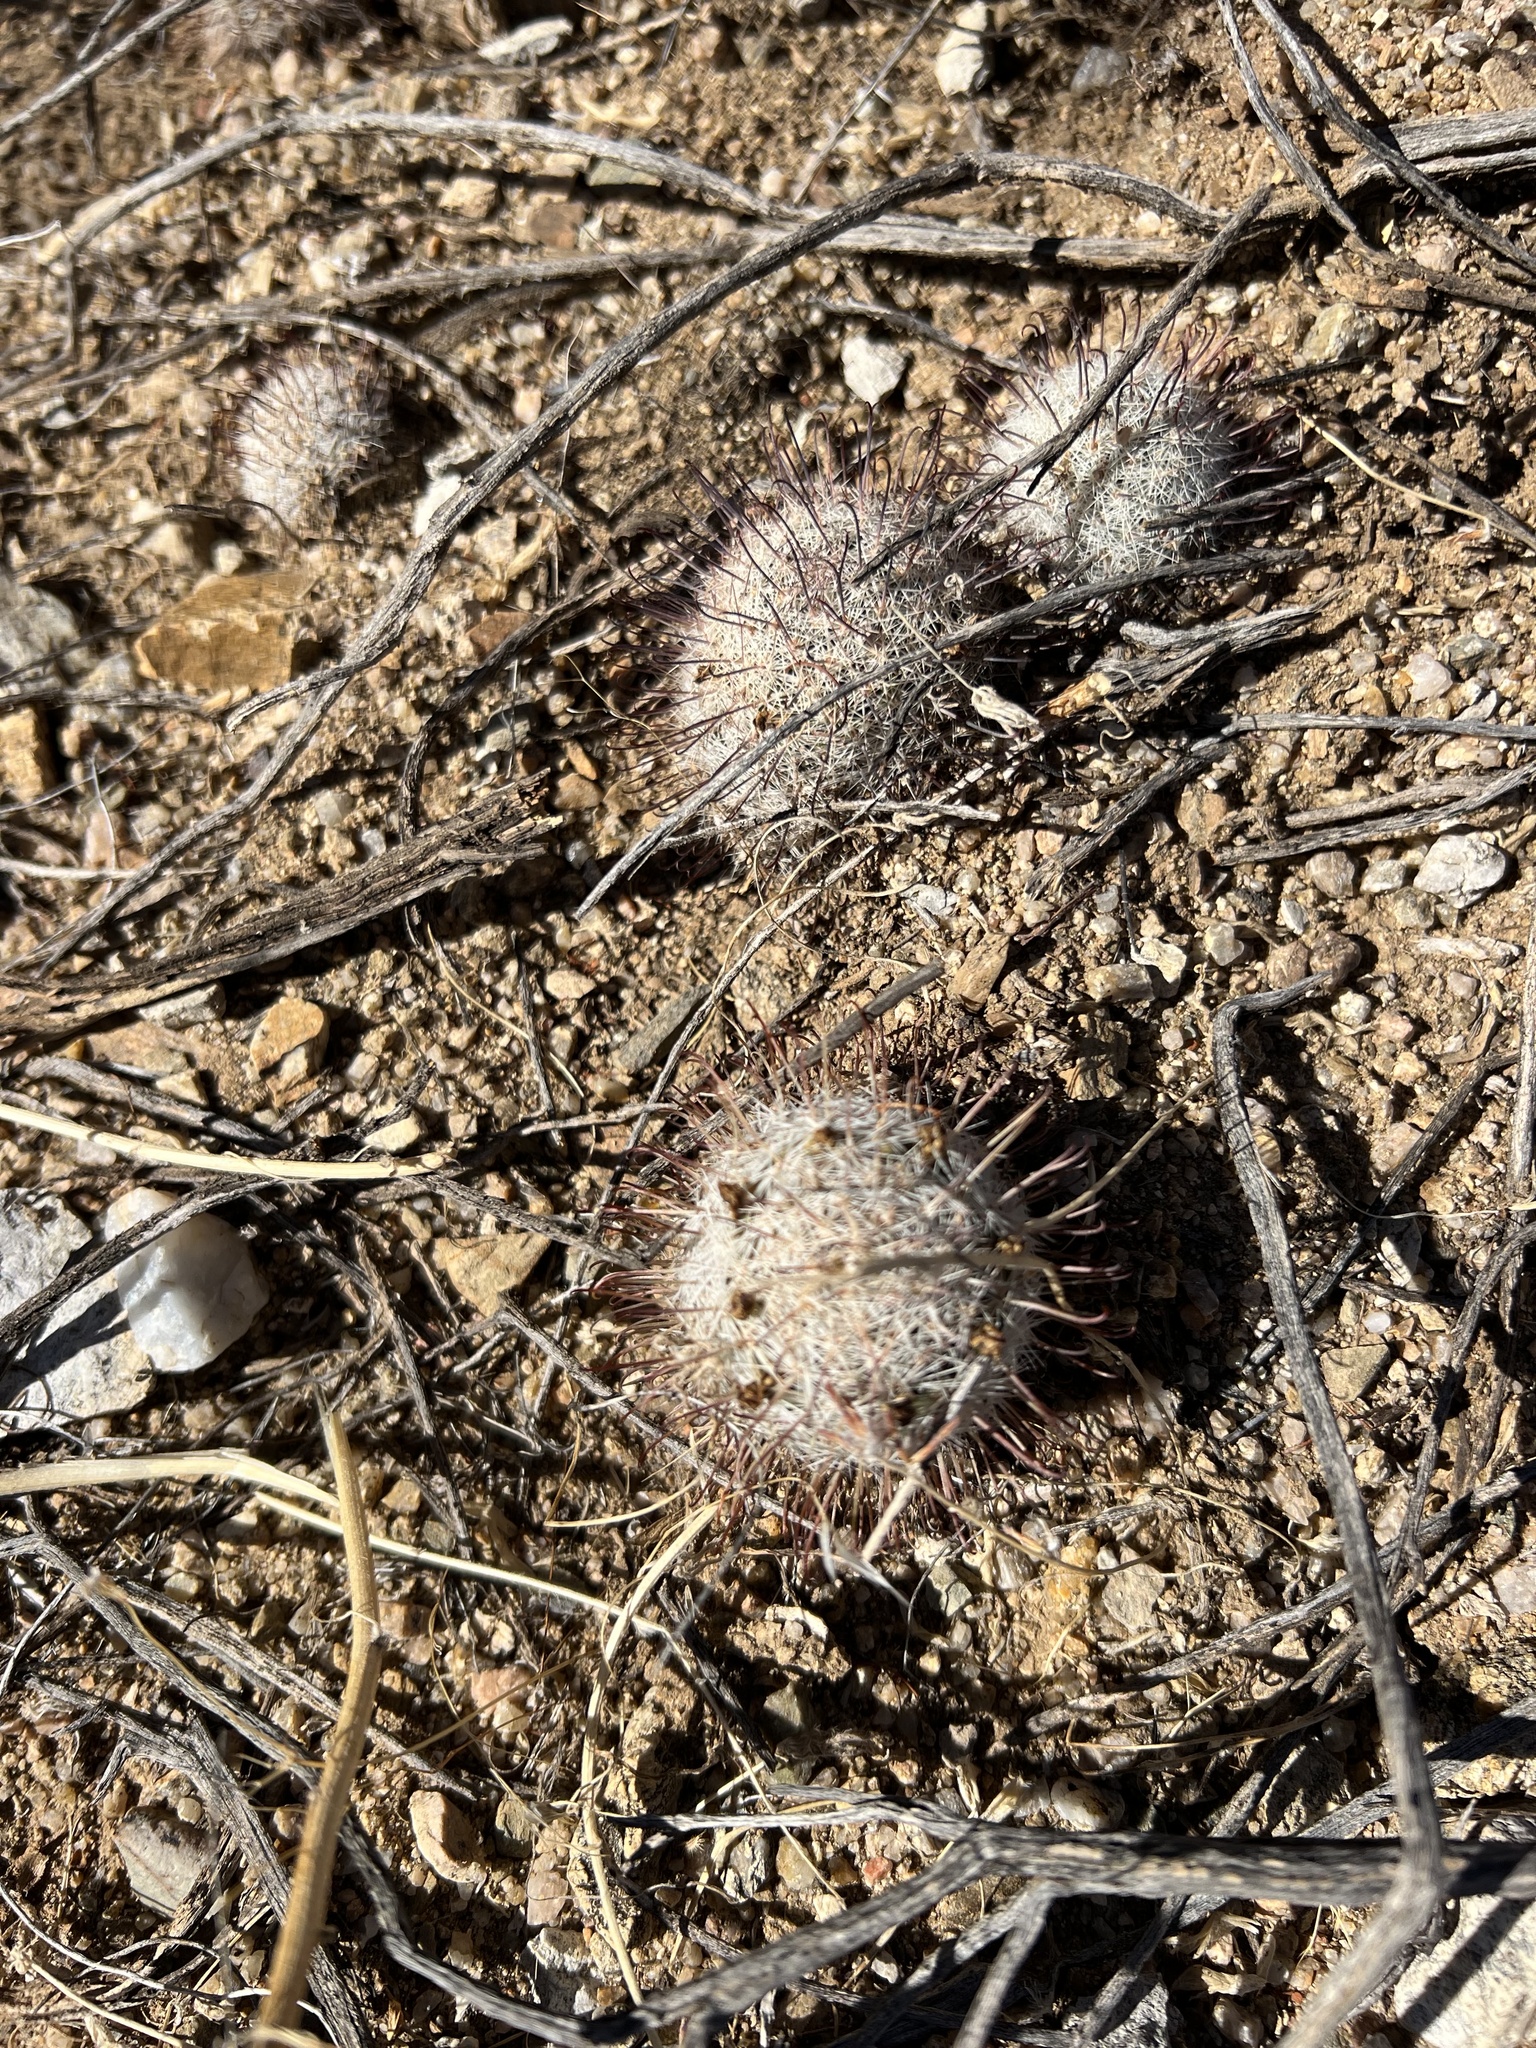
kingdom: Plantae
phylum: Tracheophyta
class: Magnoliopsida
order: Caryophyllales
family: Cactaceae
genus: Cochemiea
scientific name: Cochemiea grahamii
